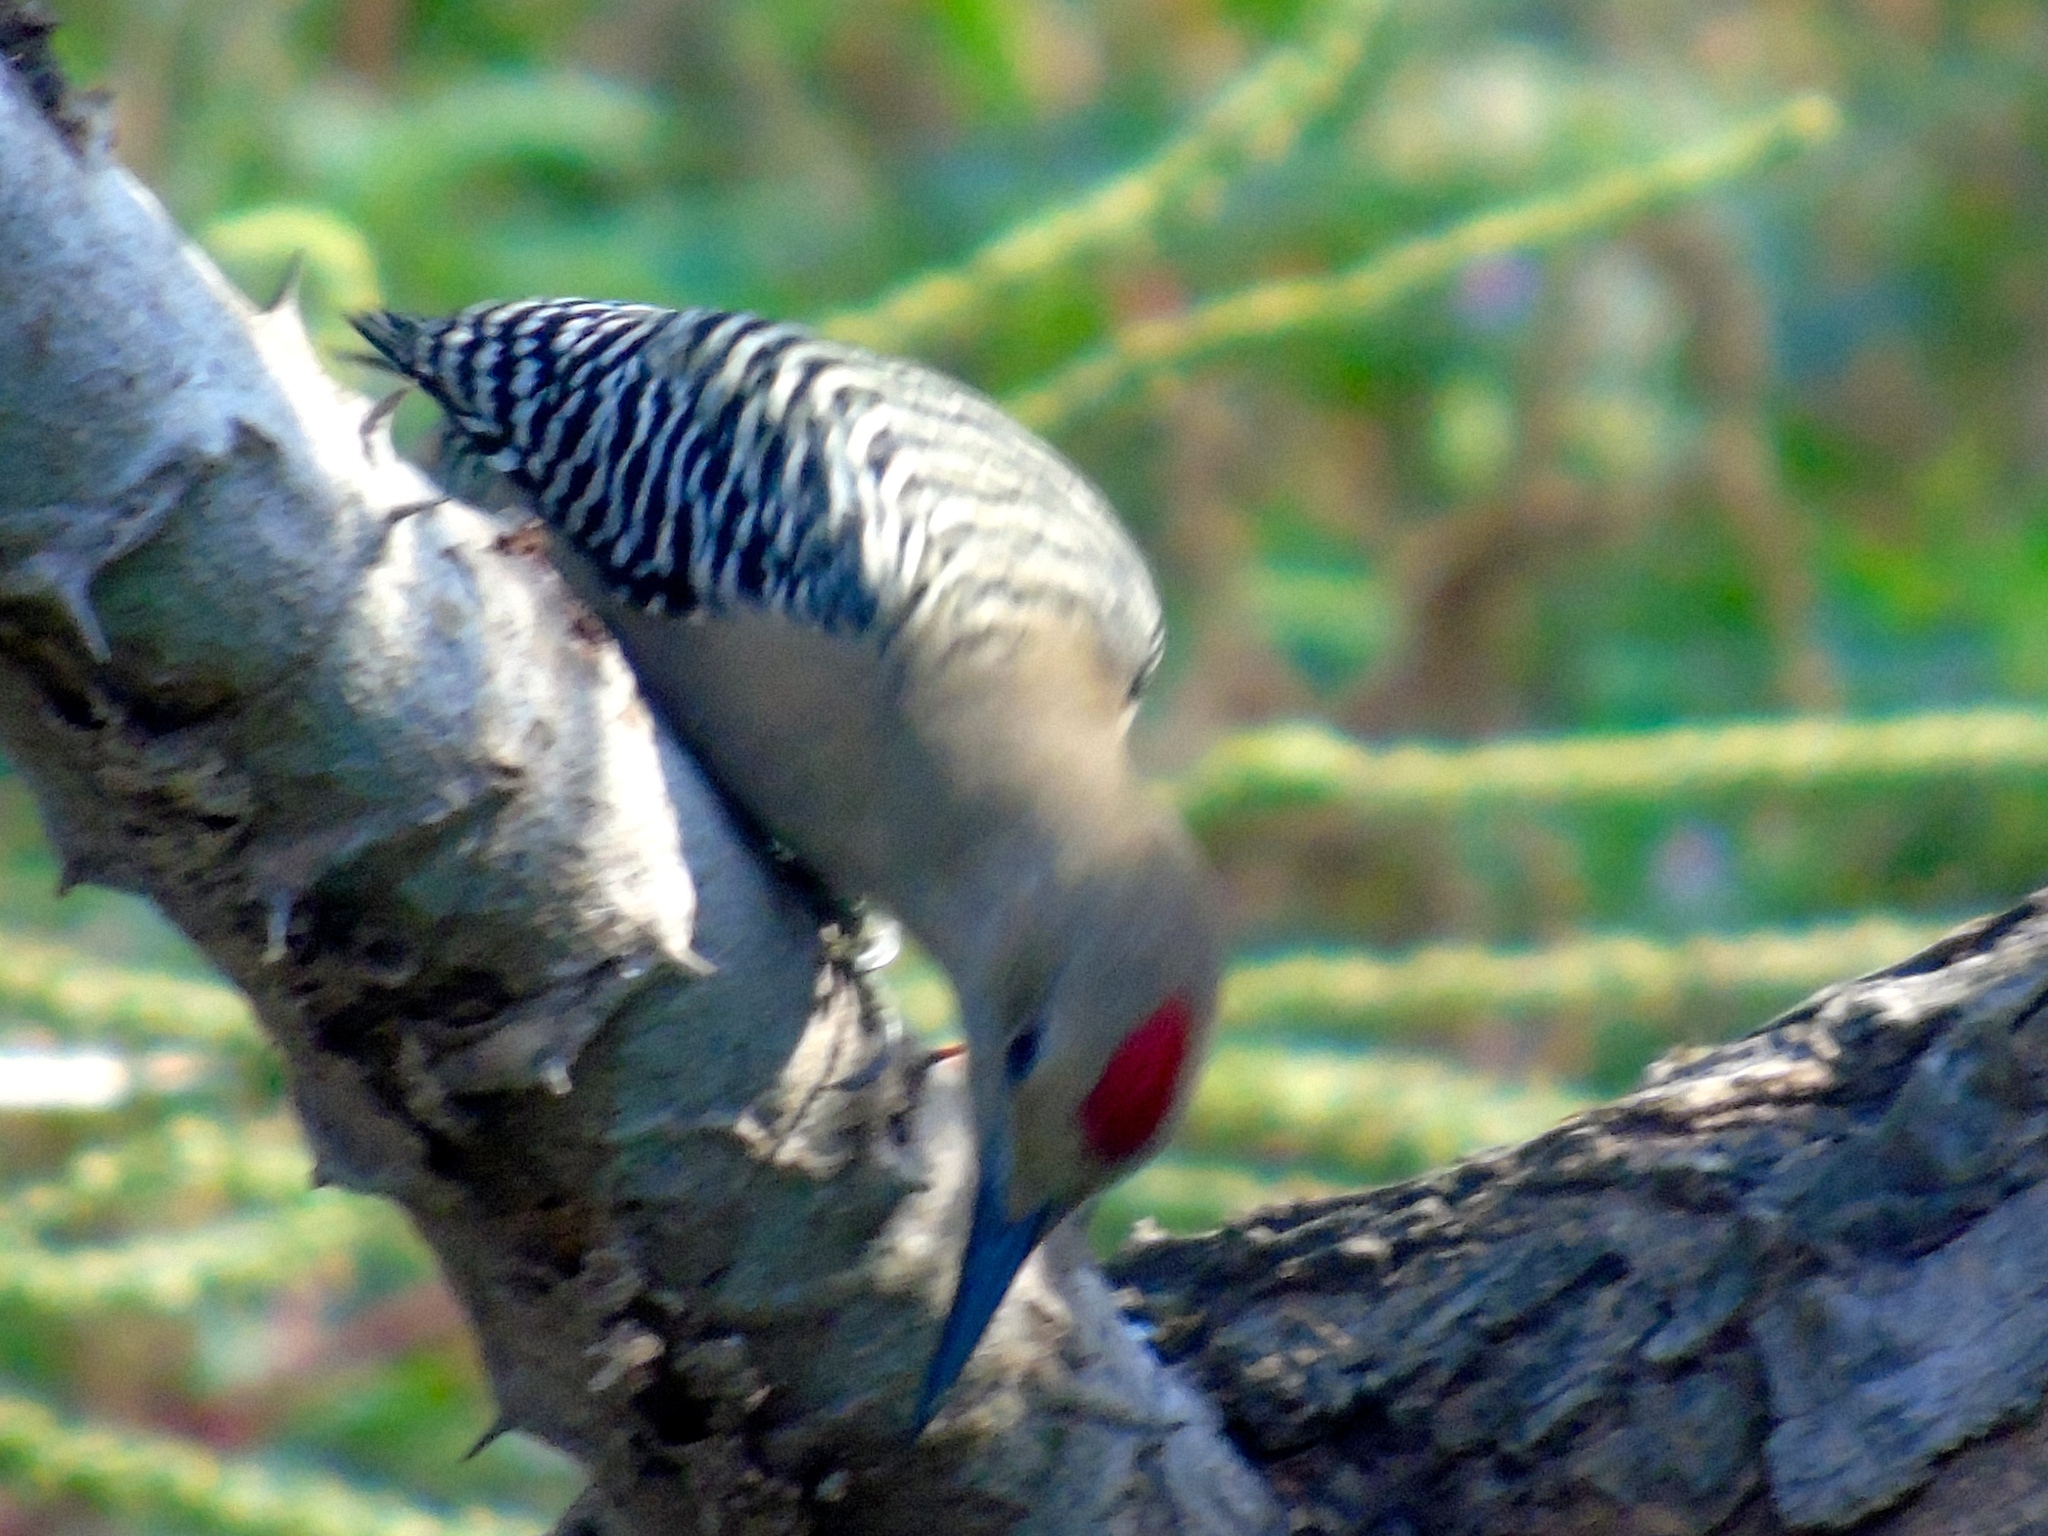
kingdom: Animalia
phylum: Chordata
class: Aves
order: Piciformes
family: Picidae
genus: Melanerpes
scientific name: Melanerpes uropygialis
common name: Gila woodpecker
